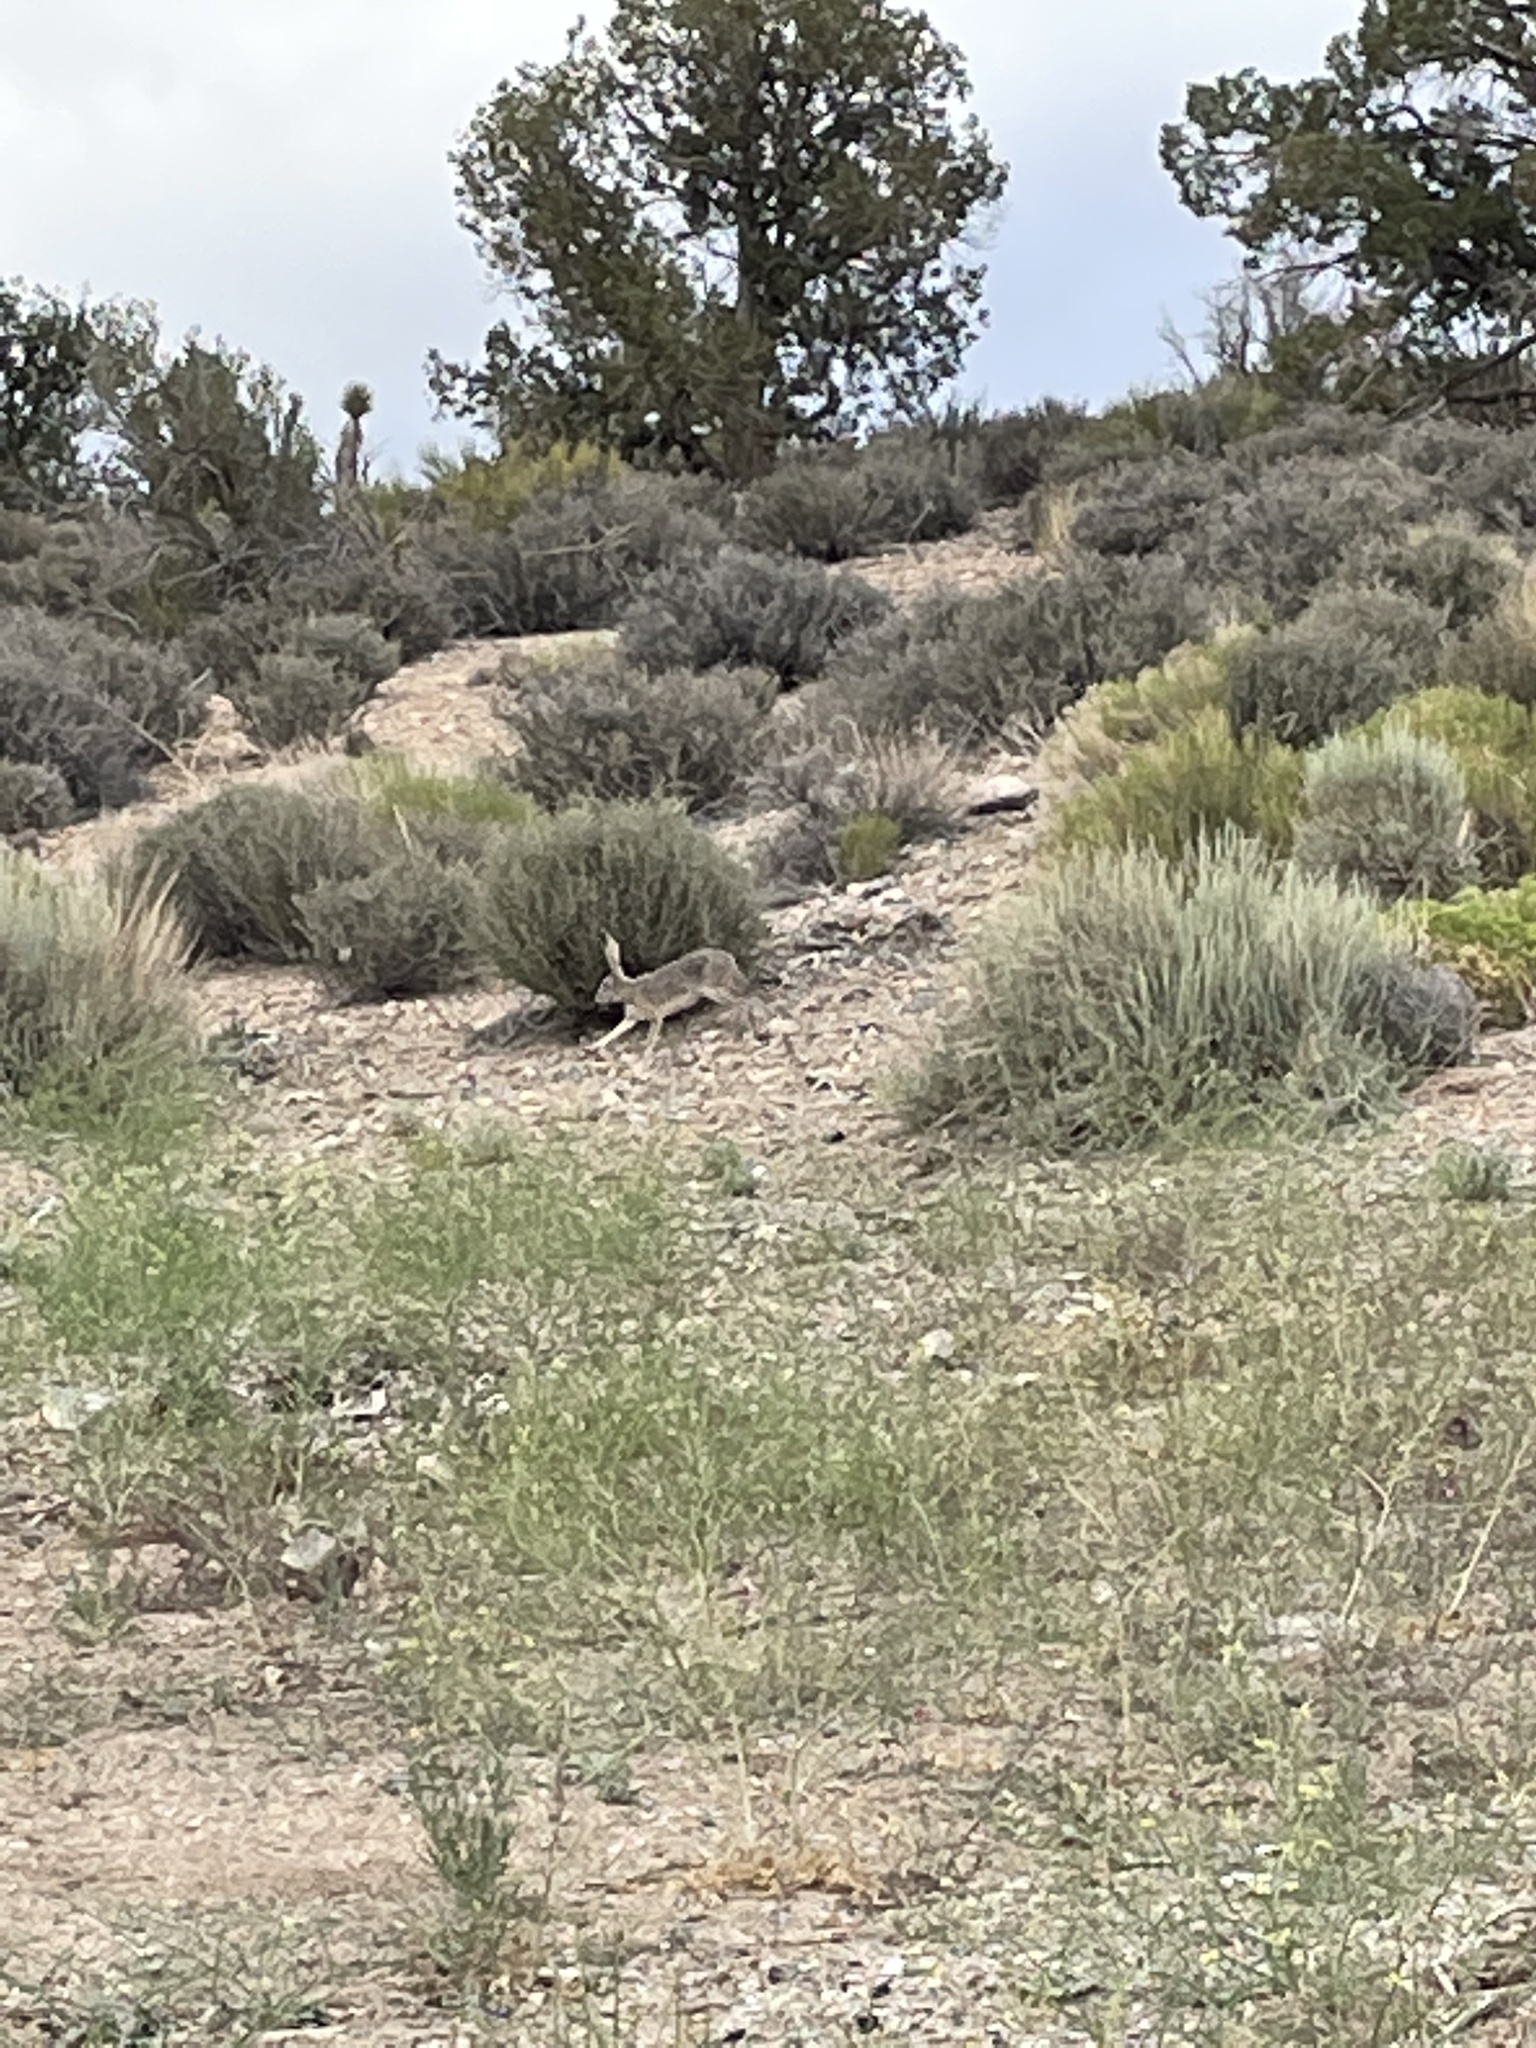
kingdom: Animalia
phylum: Chordata
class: Mammalia
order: Lagomorpha
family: Leporidae
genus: Lepus
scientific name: Lepus californicus
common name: Black-tailed jackrabbit
